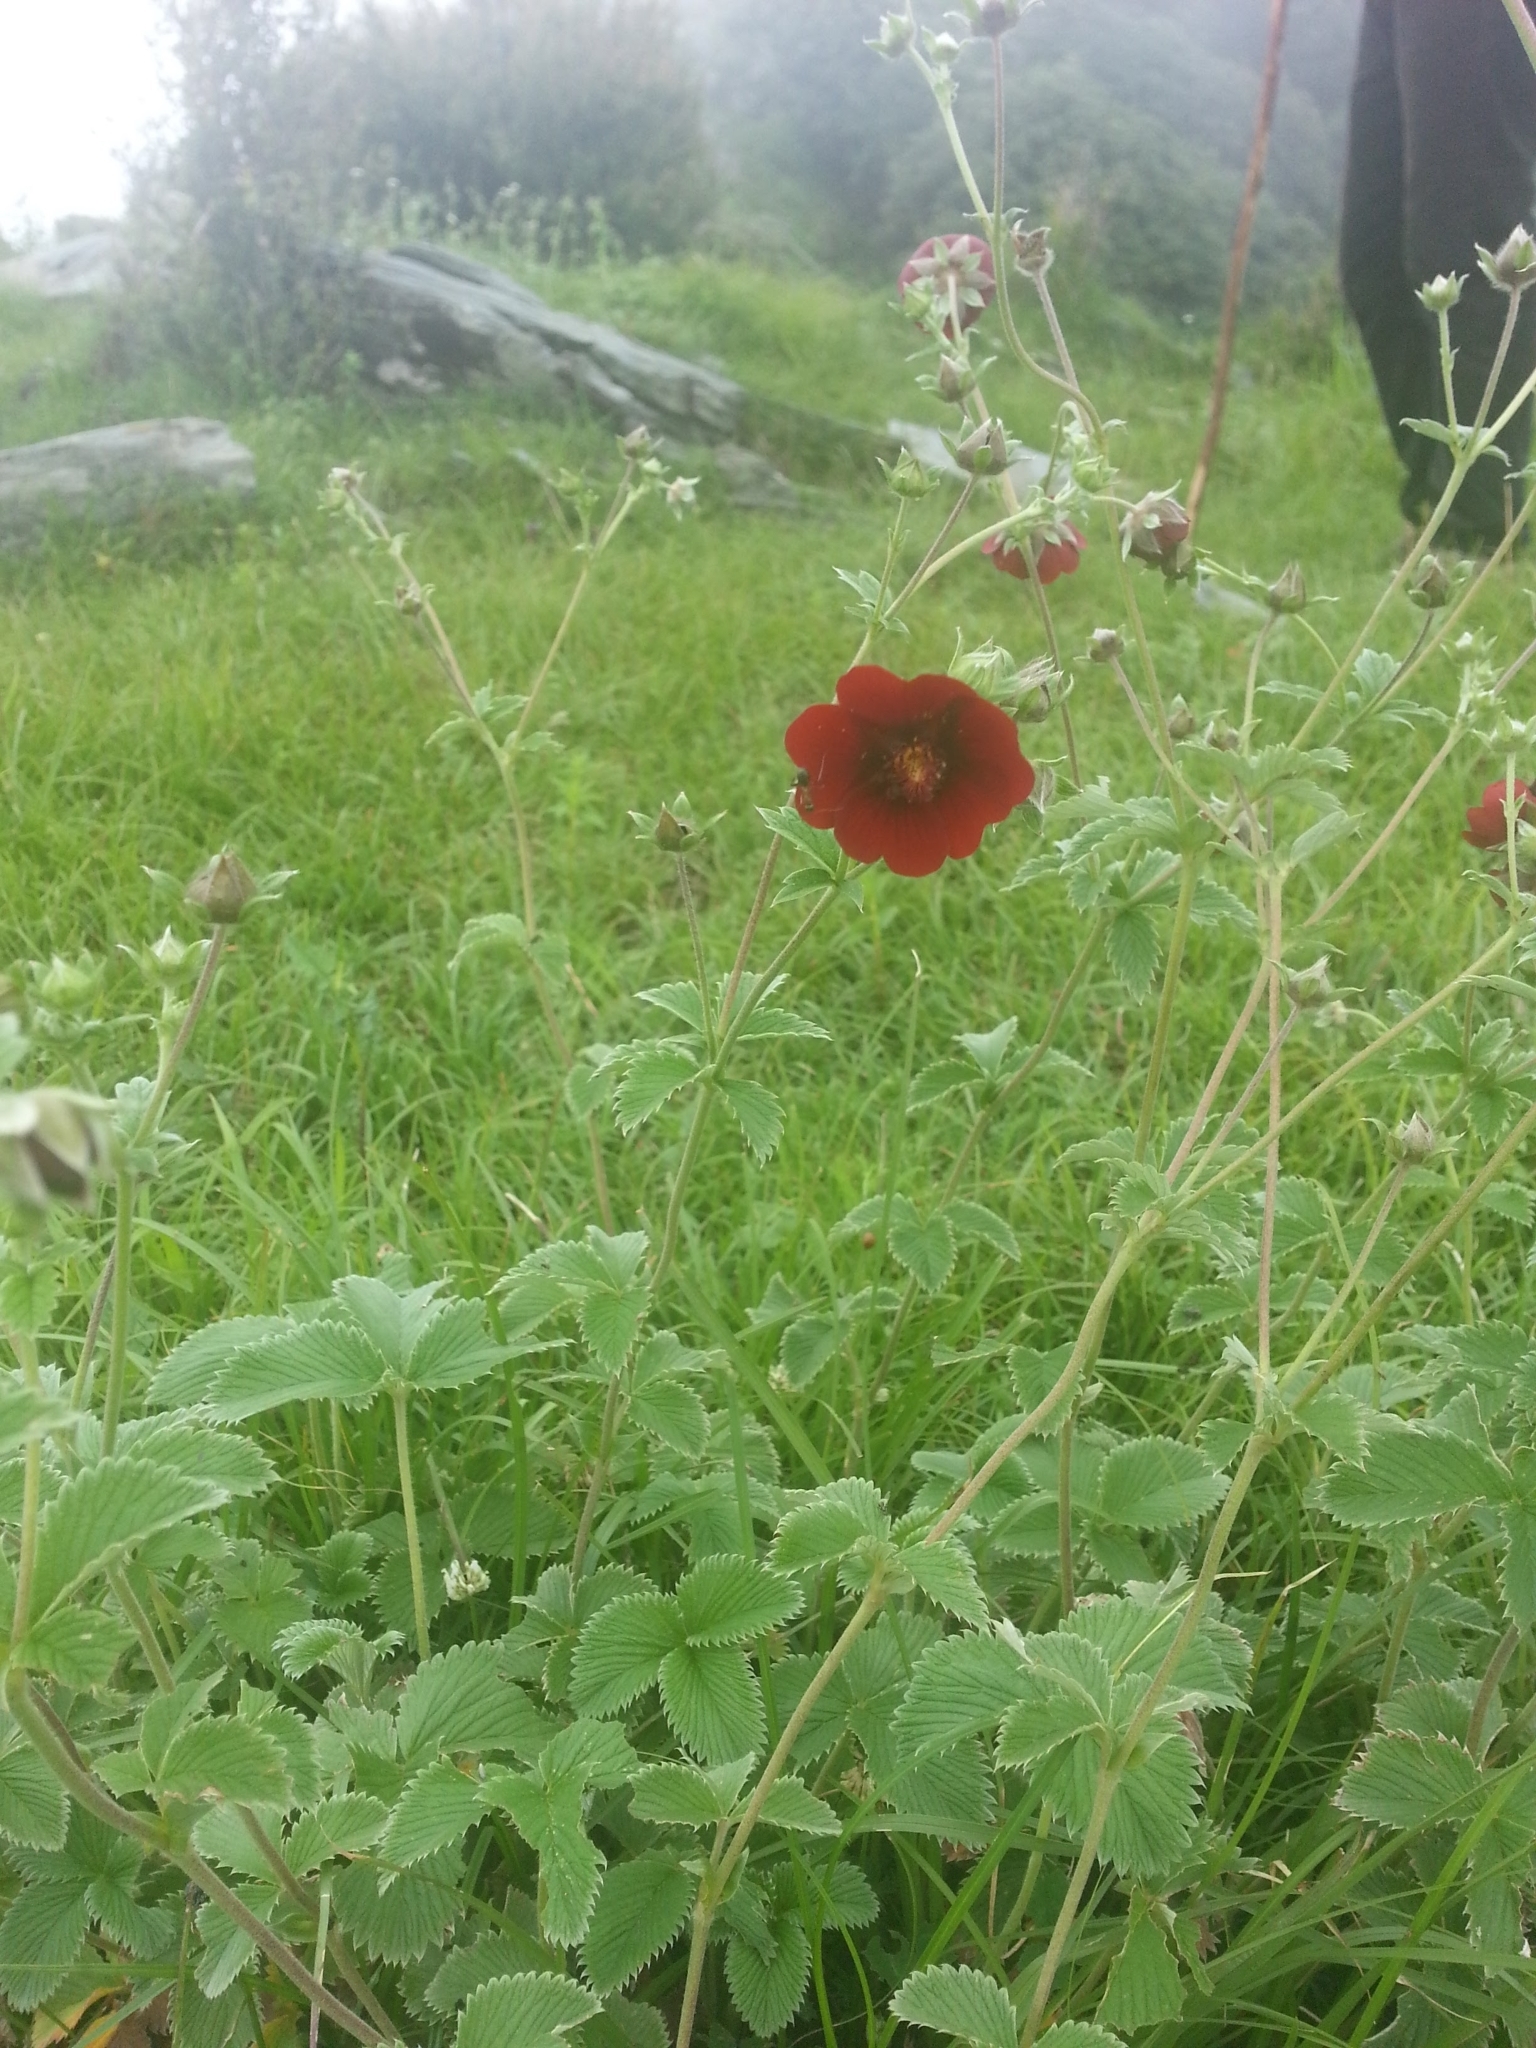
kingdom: Plantae
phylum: Tracheophyta
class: Magnoliopsida
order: Rosales
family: Rosaceae
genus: Potentilla
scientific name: Potentilla argyrophylla
